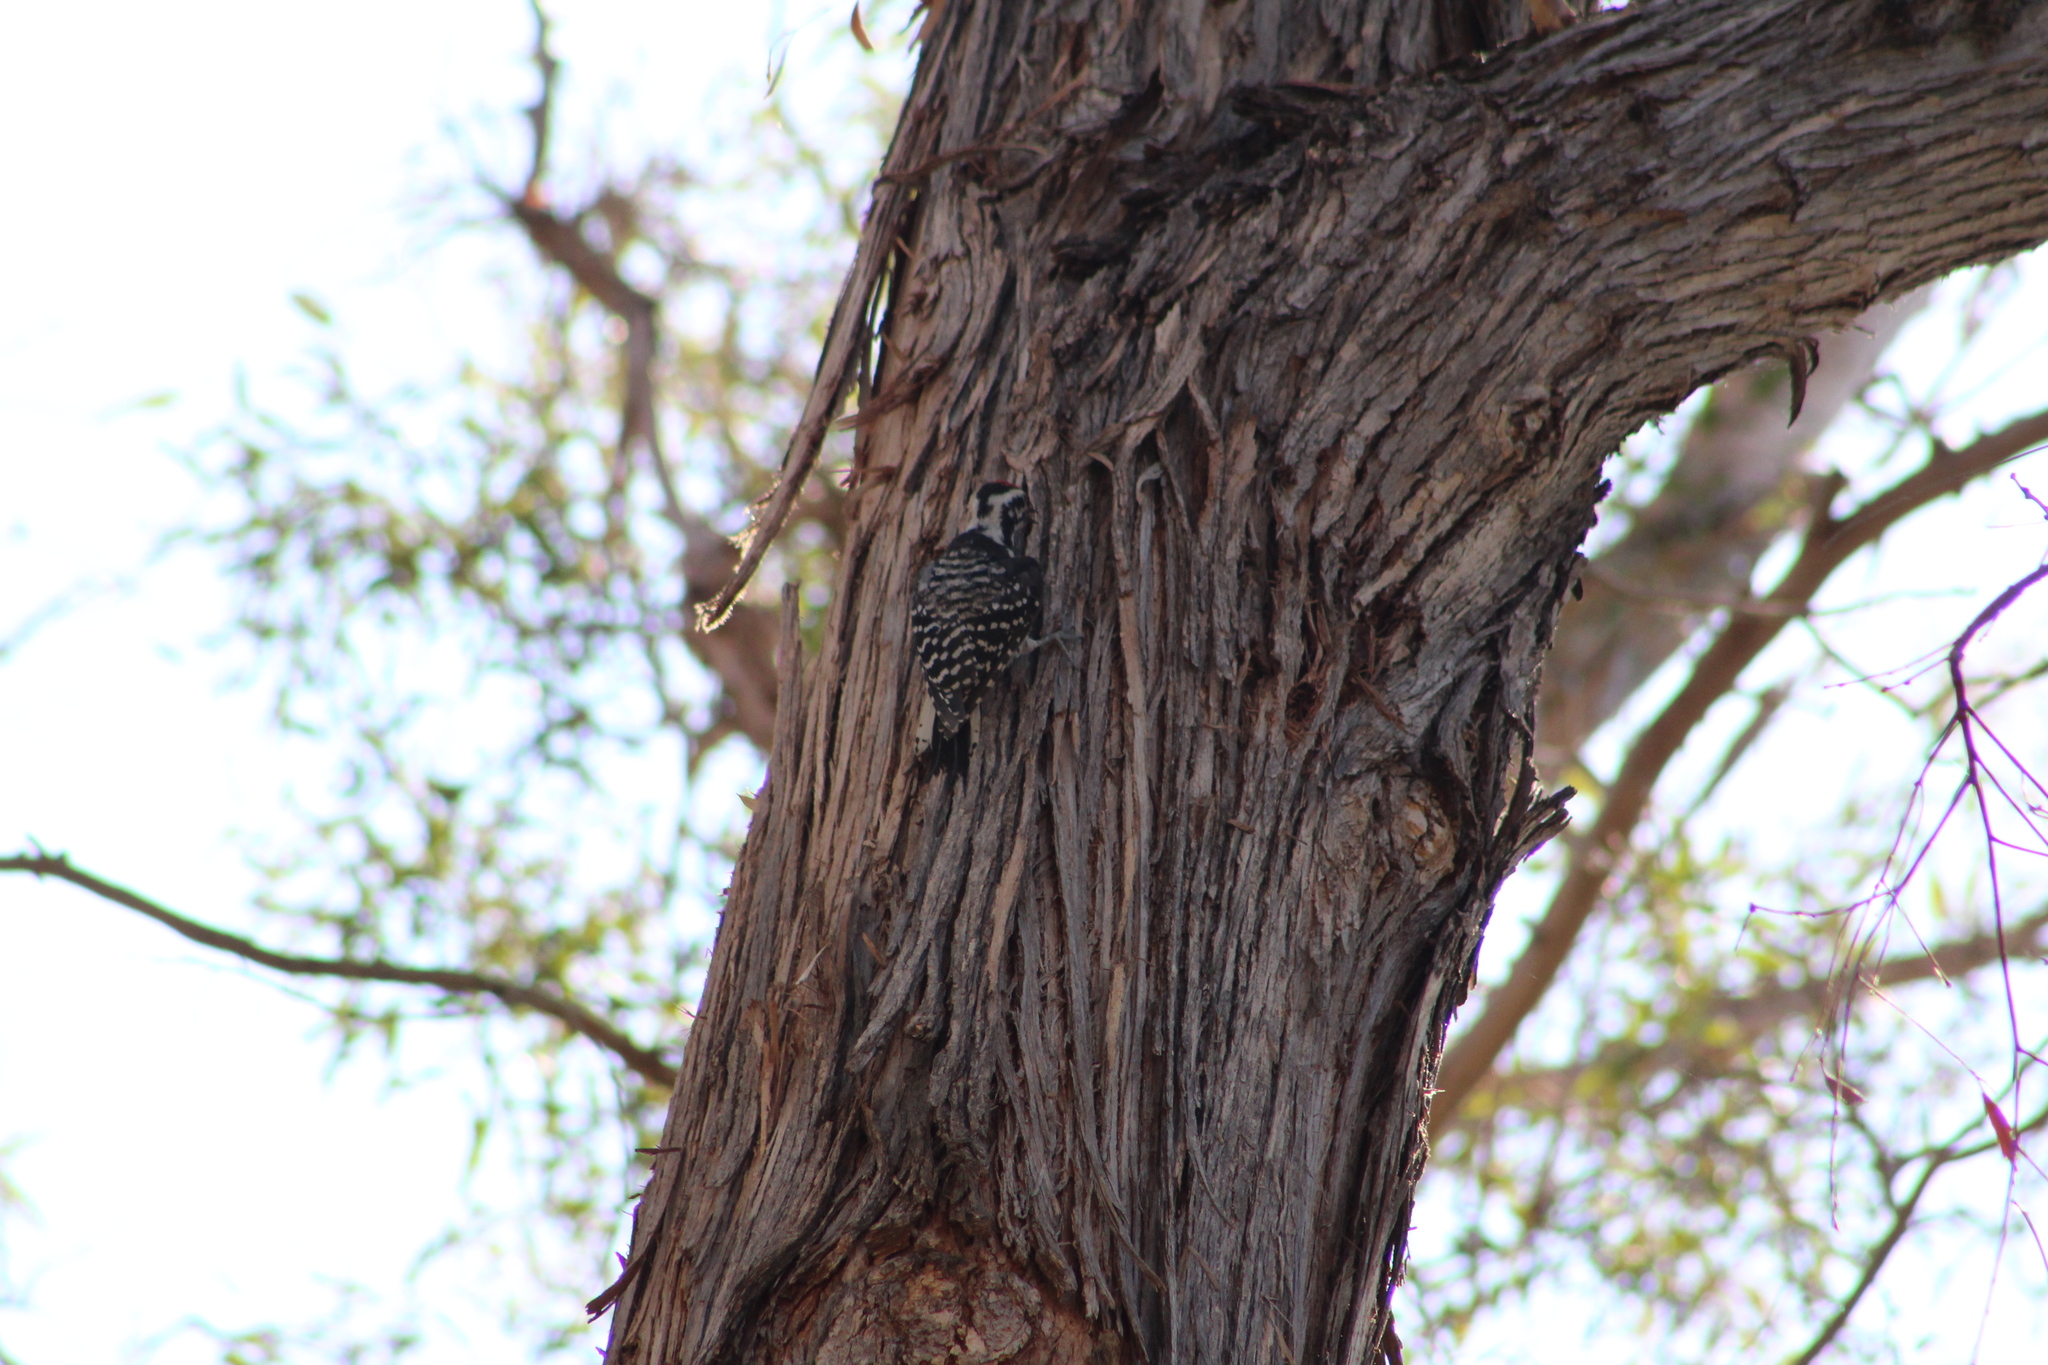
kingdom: Animalia
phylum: Chordata
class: Aves
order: Piciformes
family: Picidae
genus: Dryobates
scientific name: Dryobates nuttallii
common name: Nuttall's woodpecker
